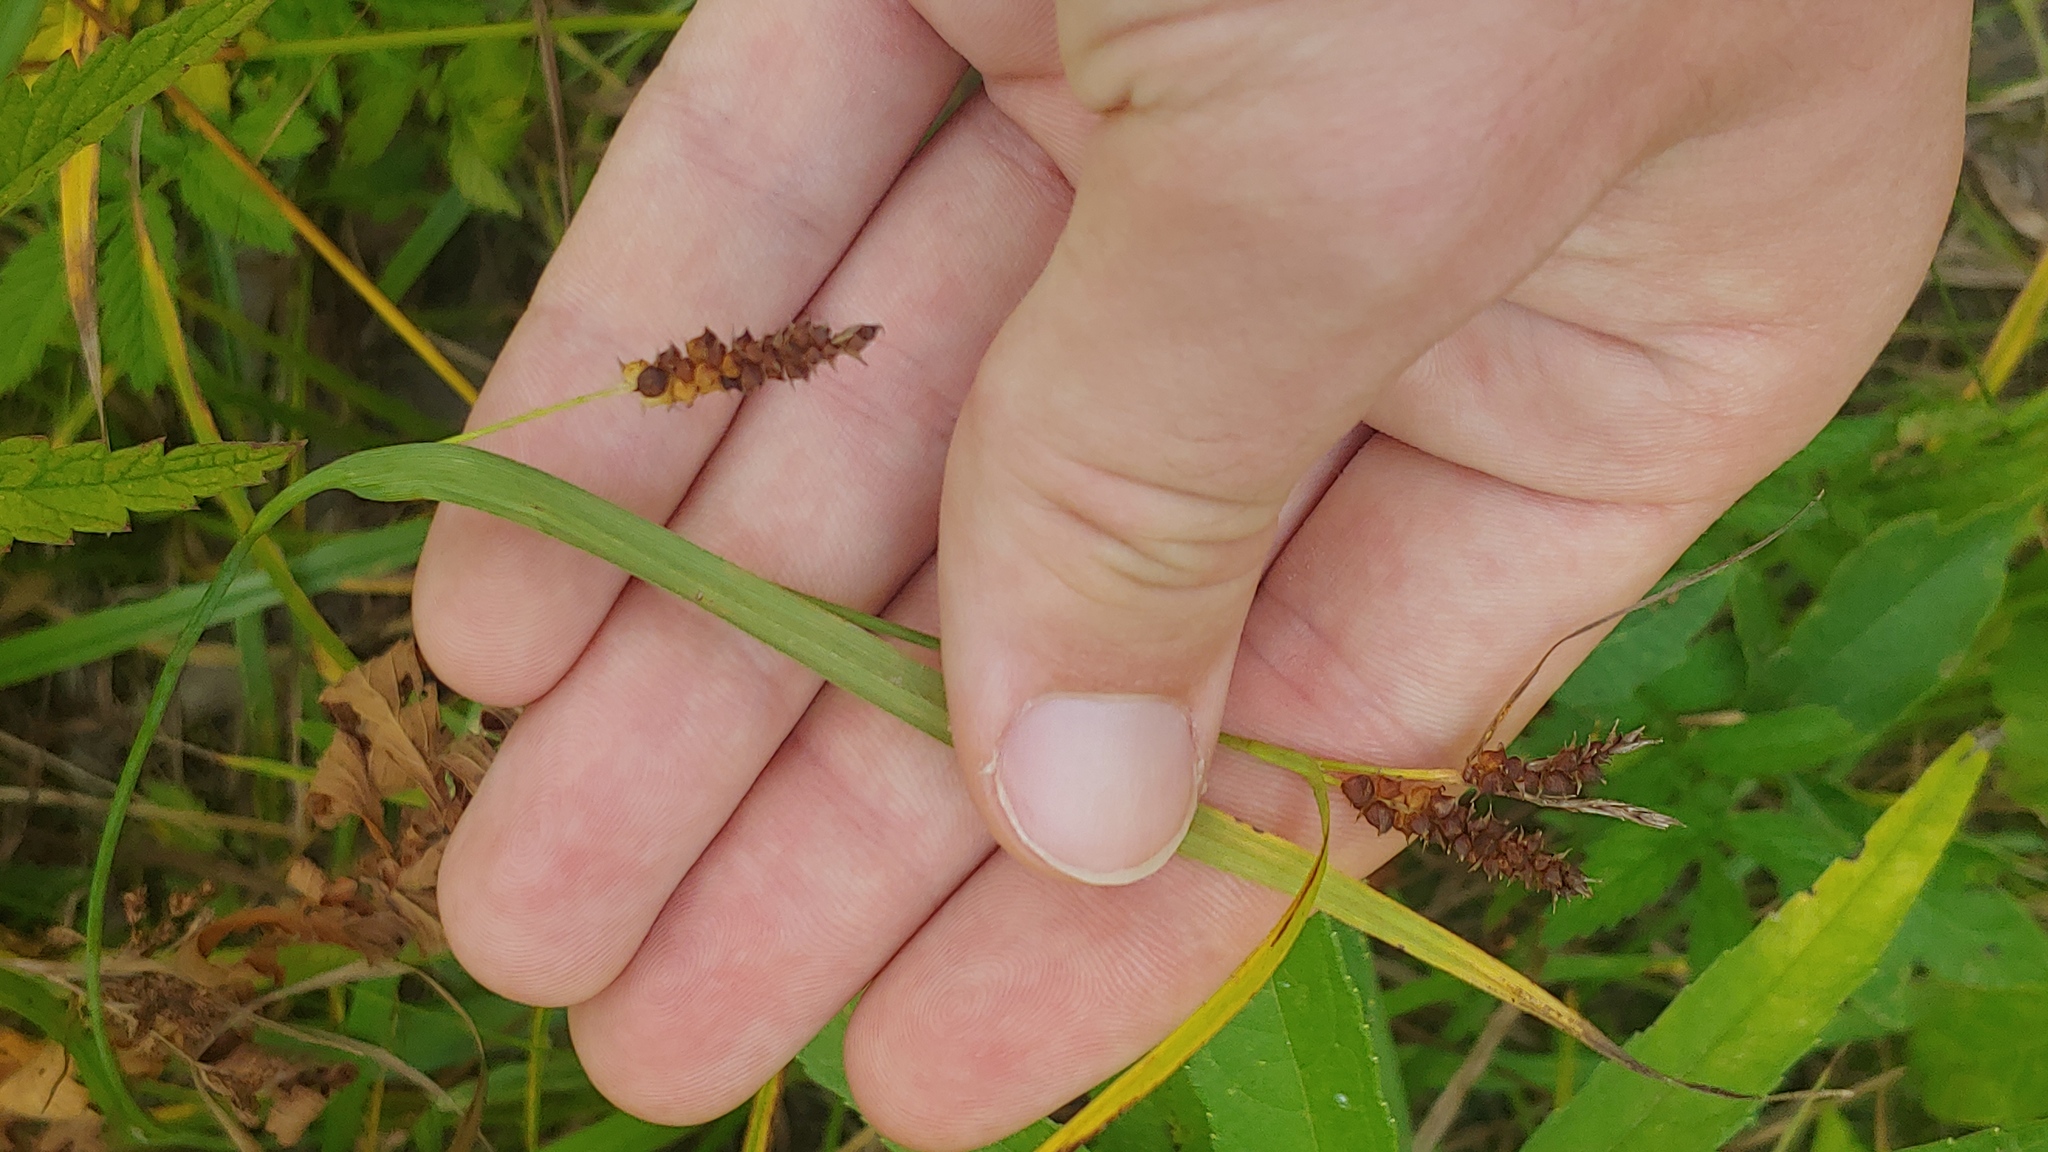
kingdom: Plantae
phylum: Tracheophyta
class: Liliopsida
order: Poales
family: Cyperaceae
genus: Carex
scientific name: Carex granularis
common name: Granular sedge
